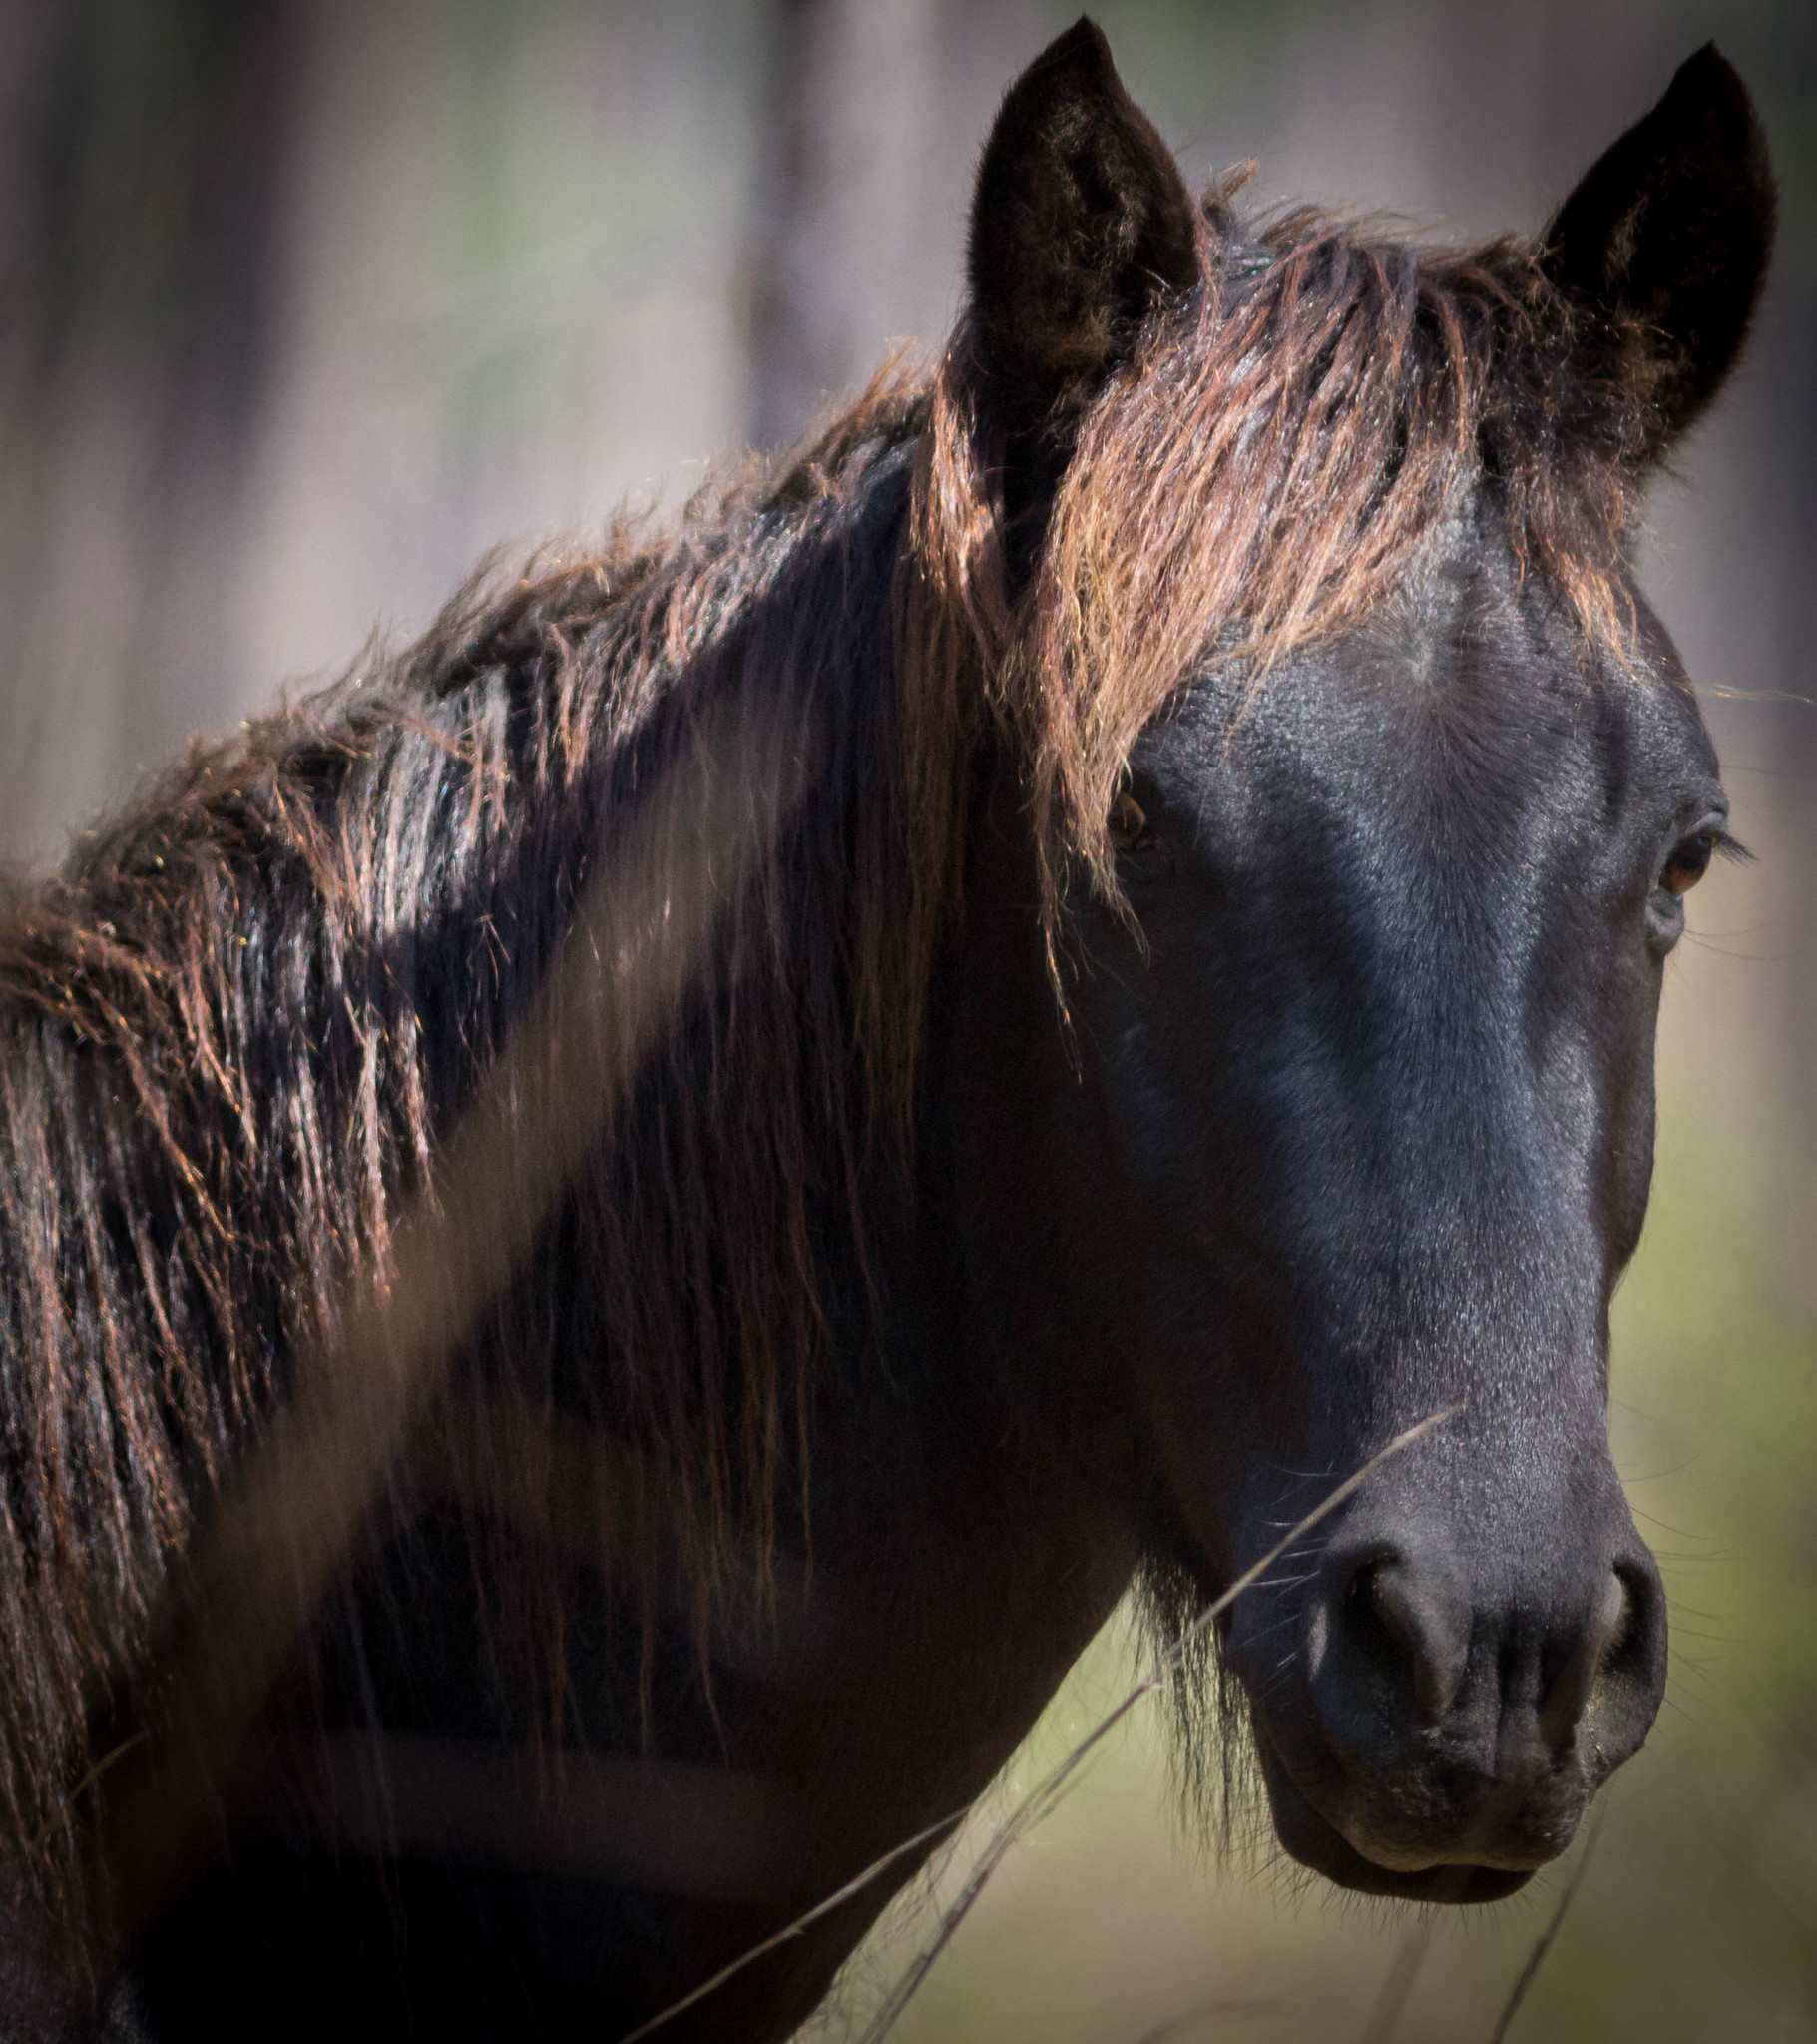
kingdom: Animalia
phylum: Chordata
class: Mammalia
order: Perissodactyla
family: Equidae
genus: Equus
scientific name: Equus caballus
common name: Horse
